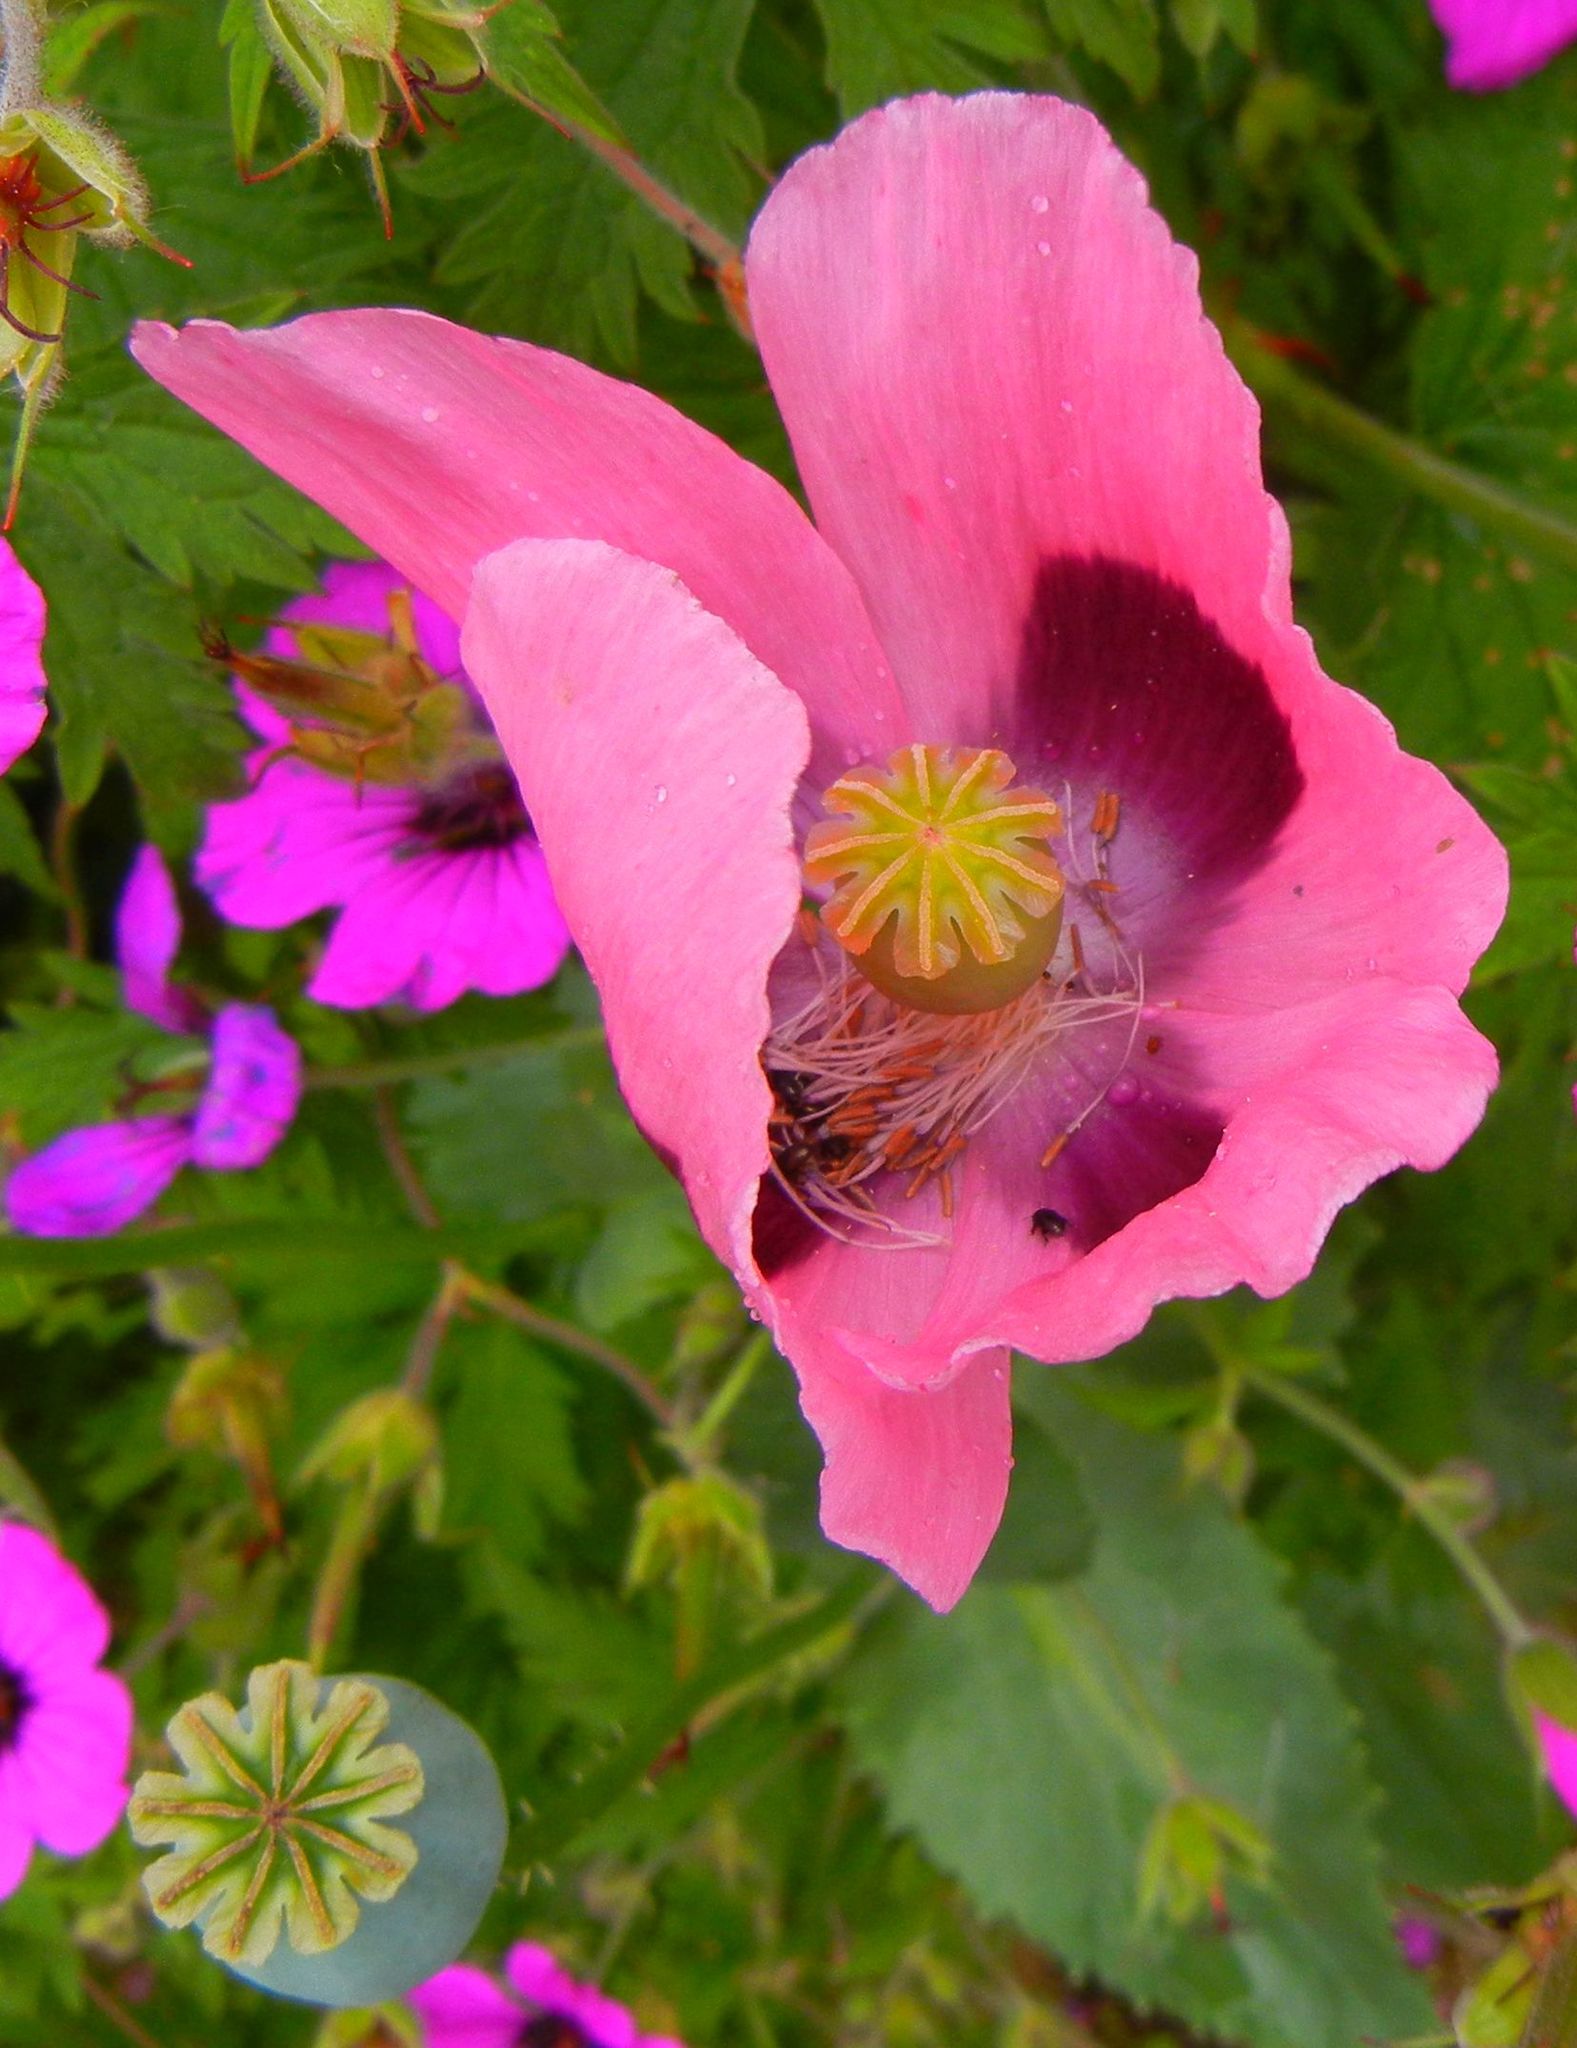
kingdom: Plantae
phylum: Tracheophyta
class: Magnoliopsida
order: Ranunculales
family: Papaveraceae
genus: Papaver
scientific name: Papaver somniferum
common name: Opium poppy
